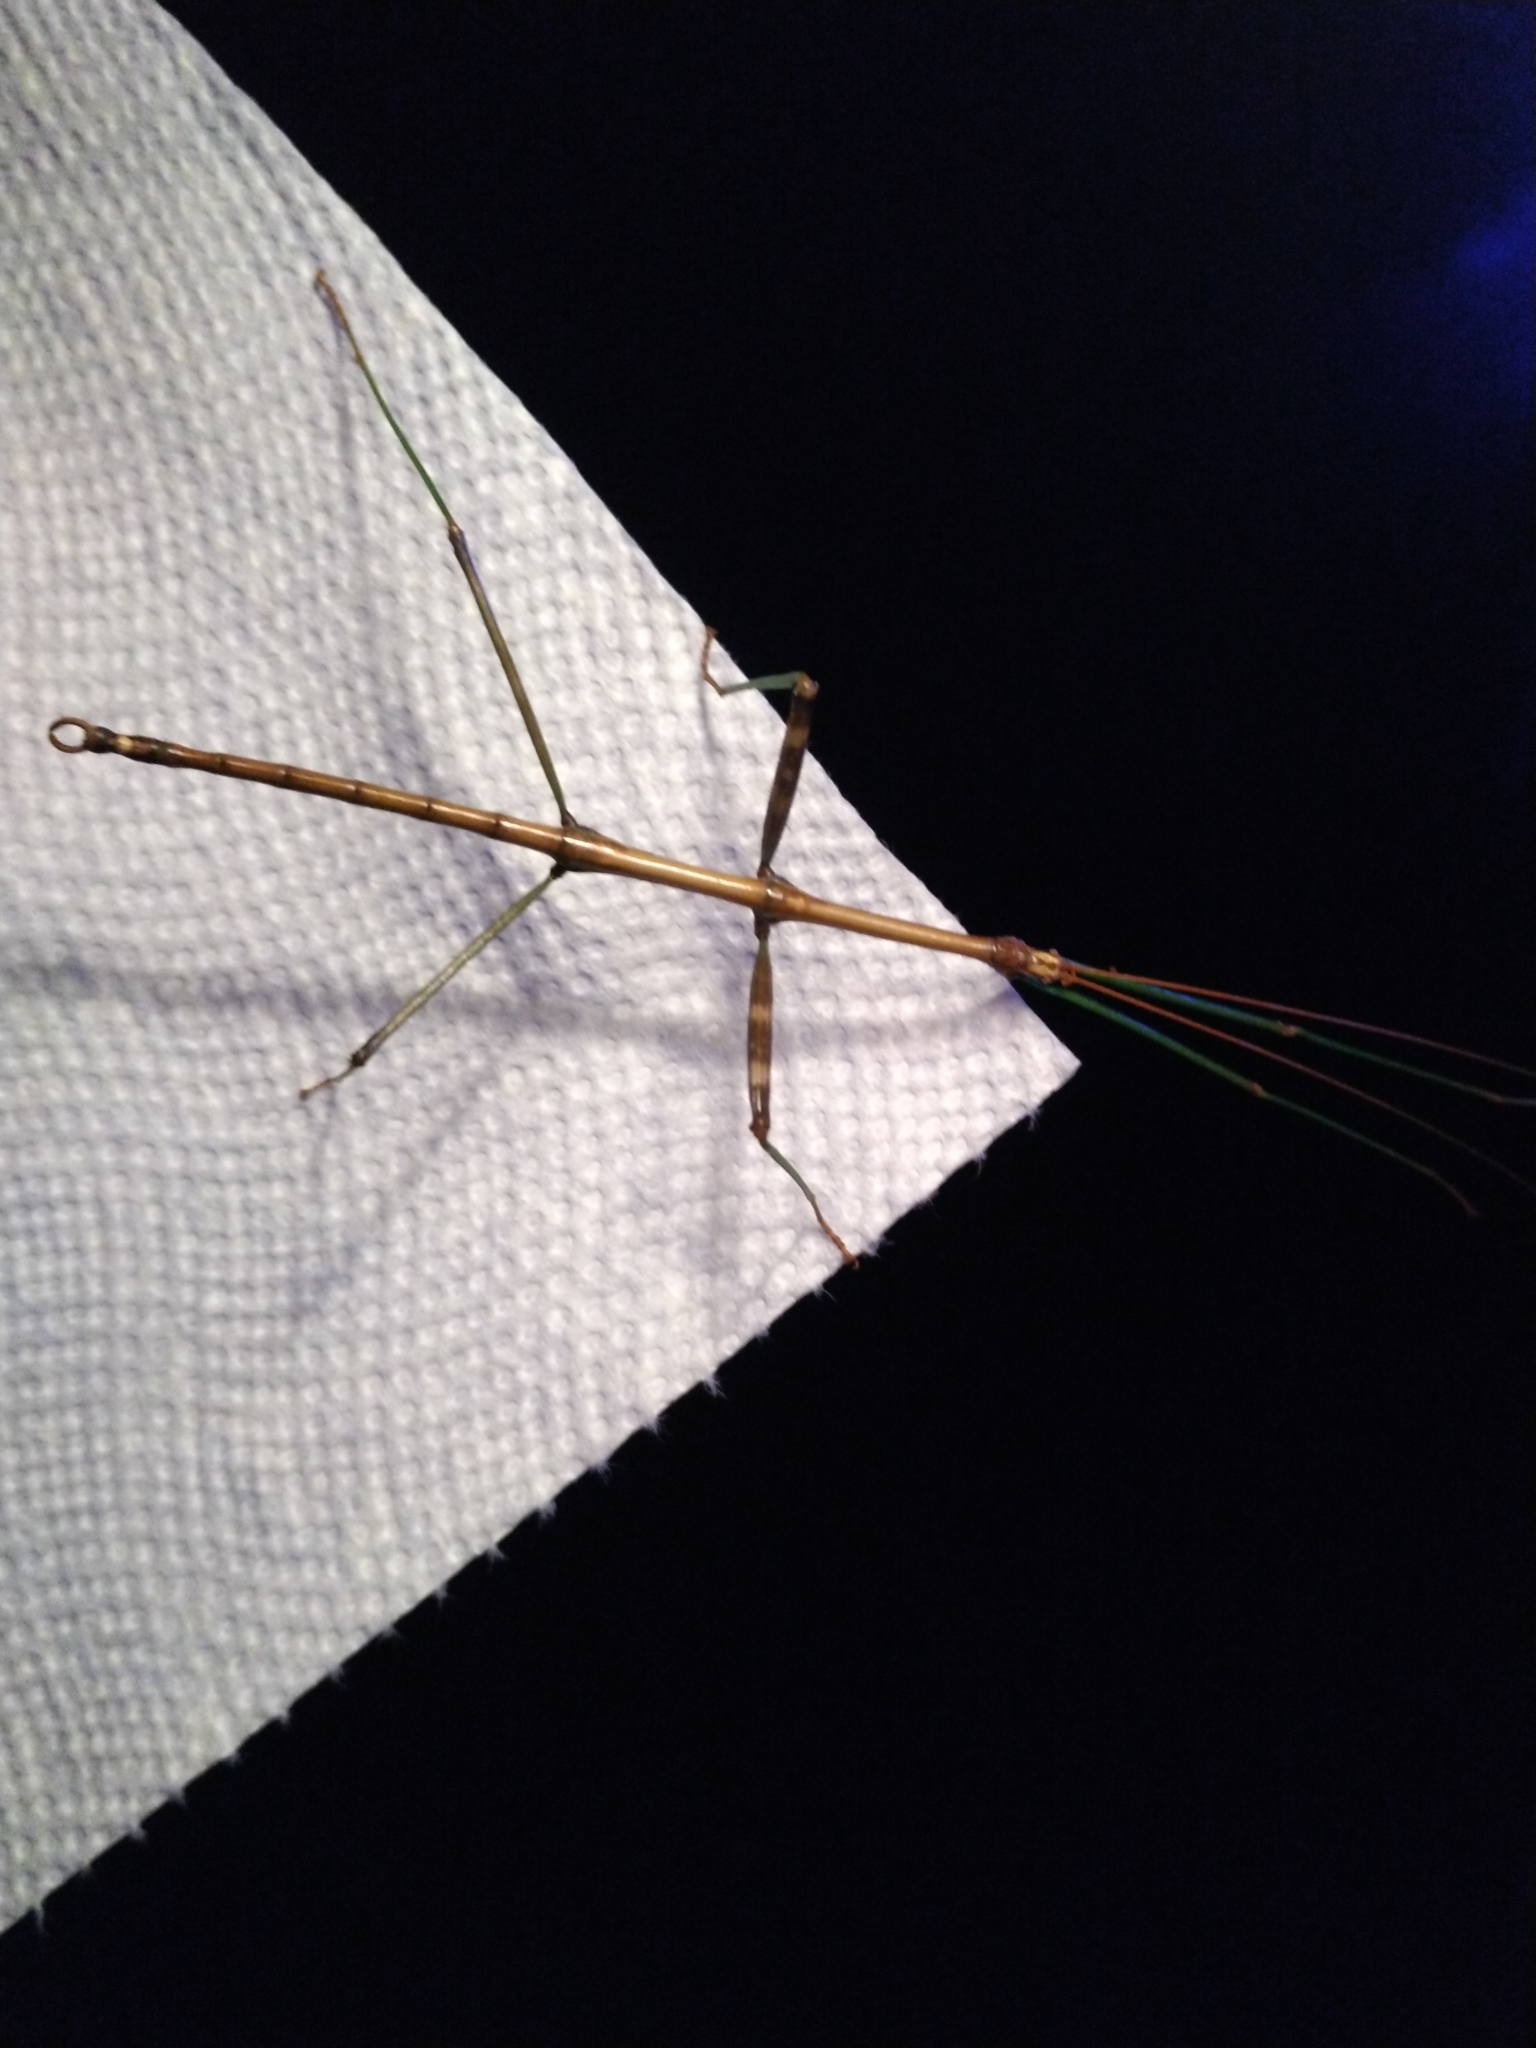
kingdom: Animalia
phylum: Arthropoda
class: Insecta
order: Phasmida
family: Diapheromeridae
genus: Diapheromera
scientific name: Diapheromera femorata
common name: Common american walkingstick
